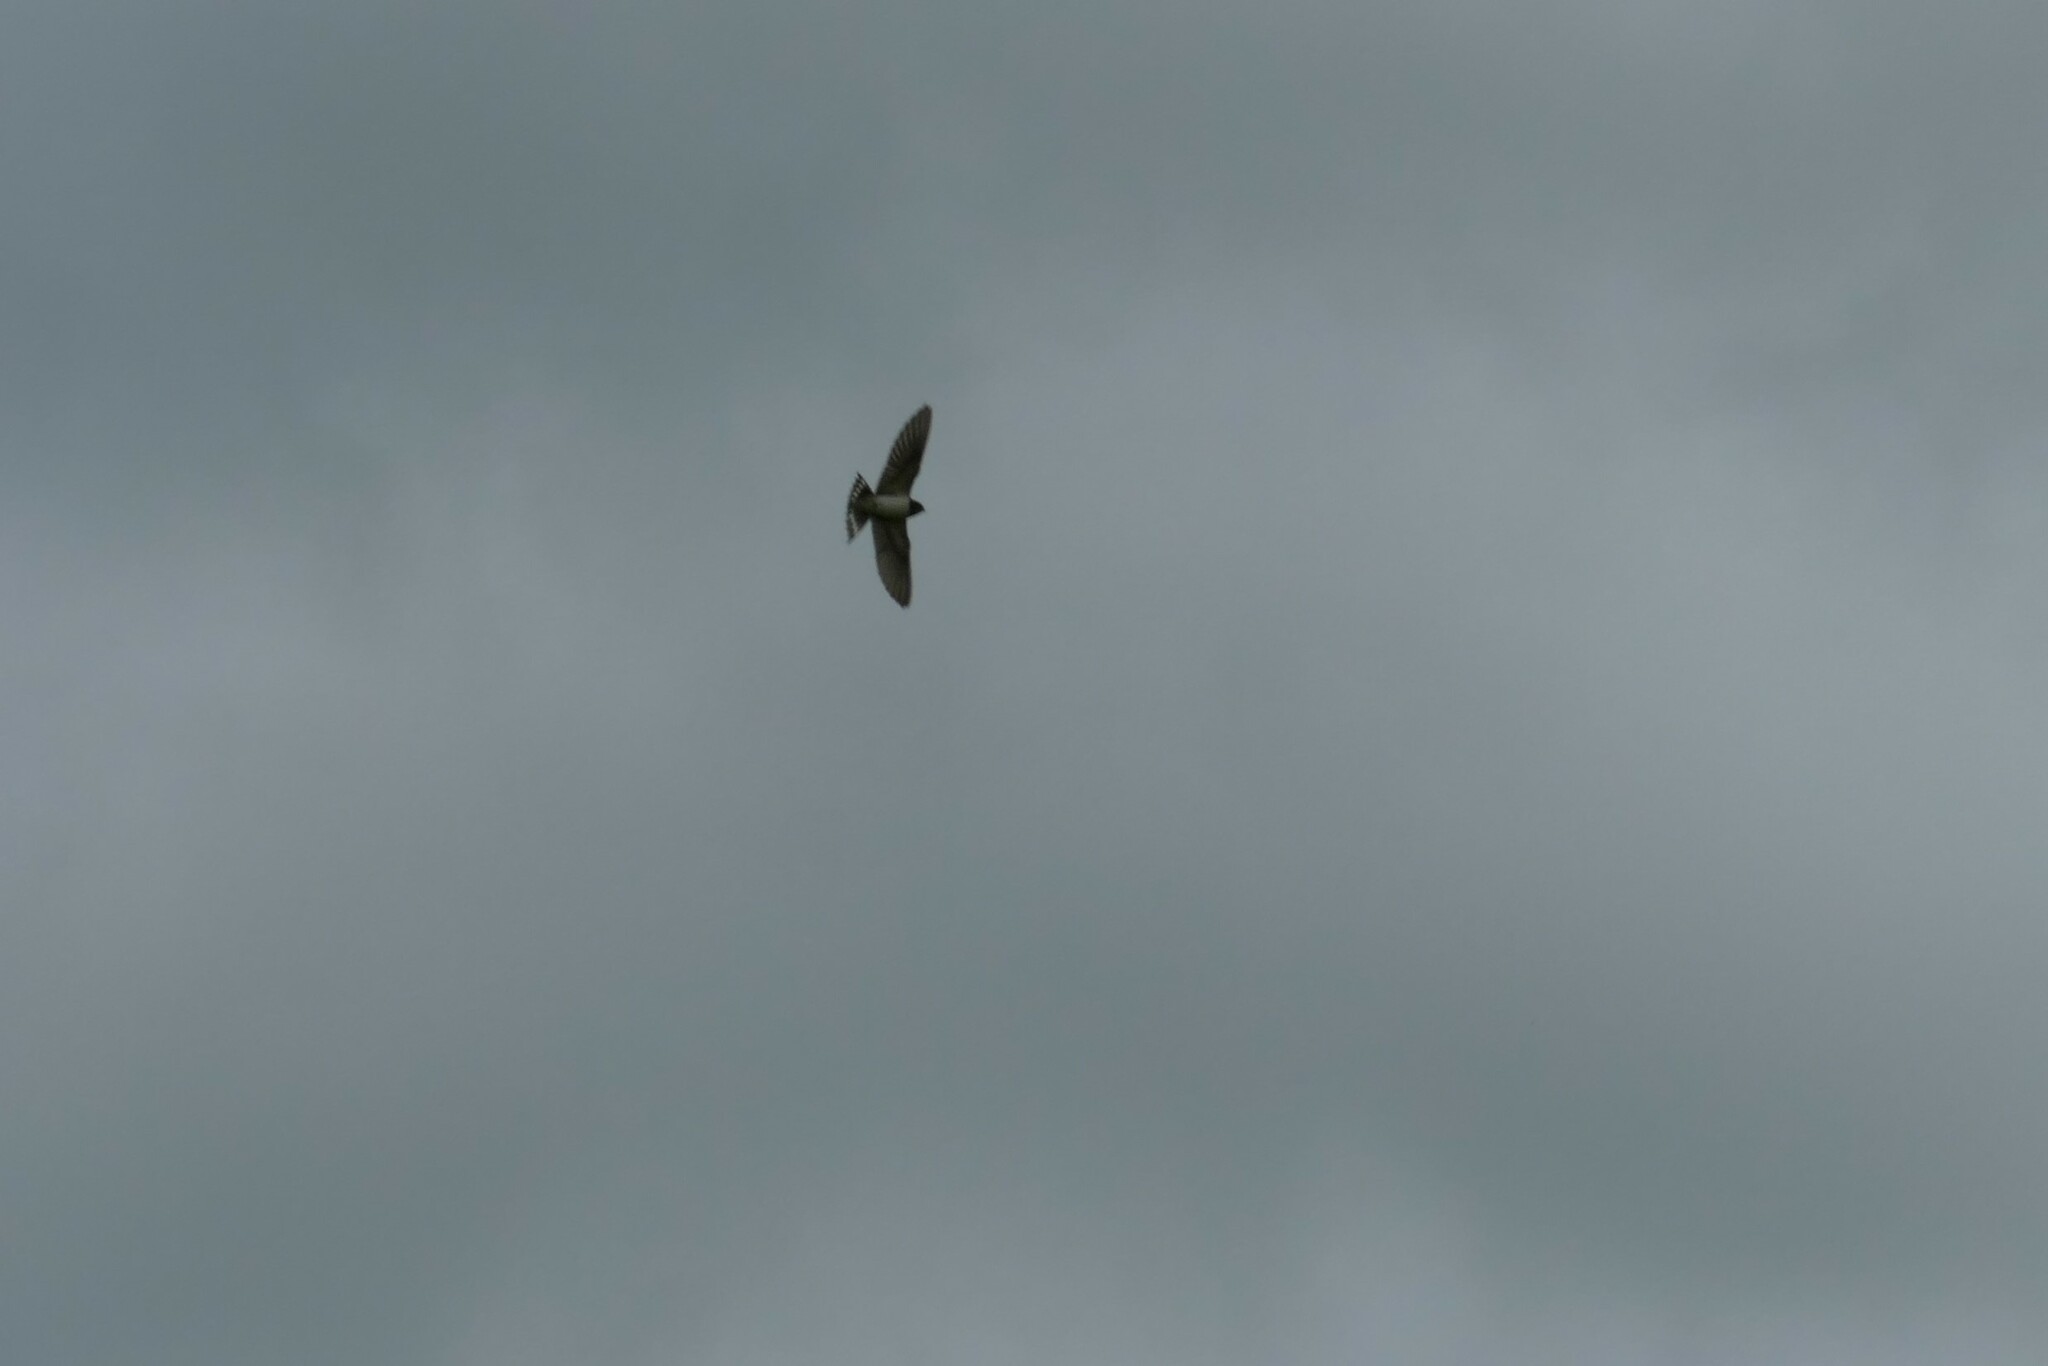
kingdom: Animalia
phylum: Chordata
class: Aves
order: Passeriformes
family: Hirundinidae
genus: Hirundo
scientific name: Hirundo rustica
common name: Barn swallow
